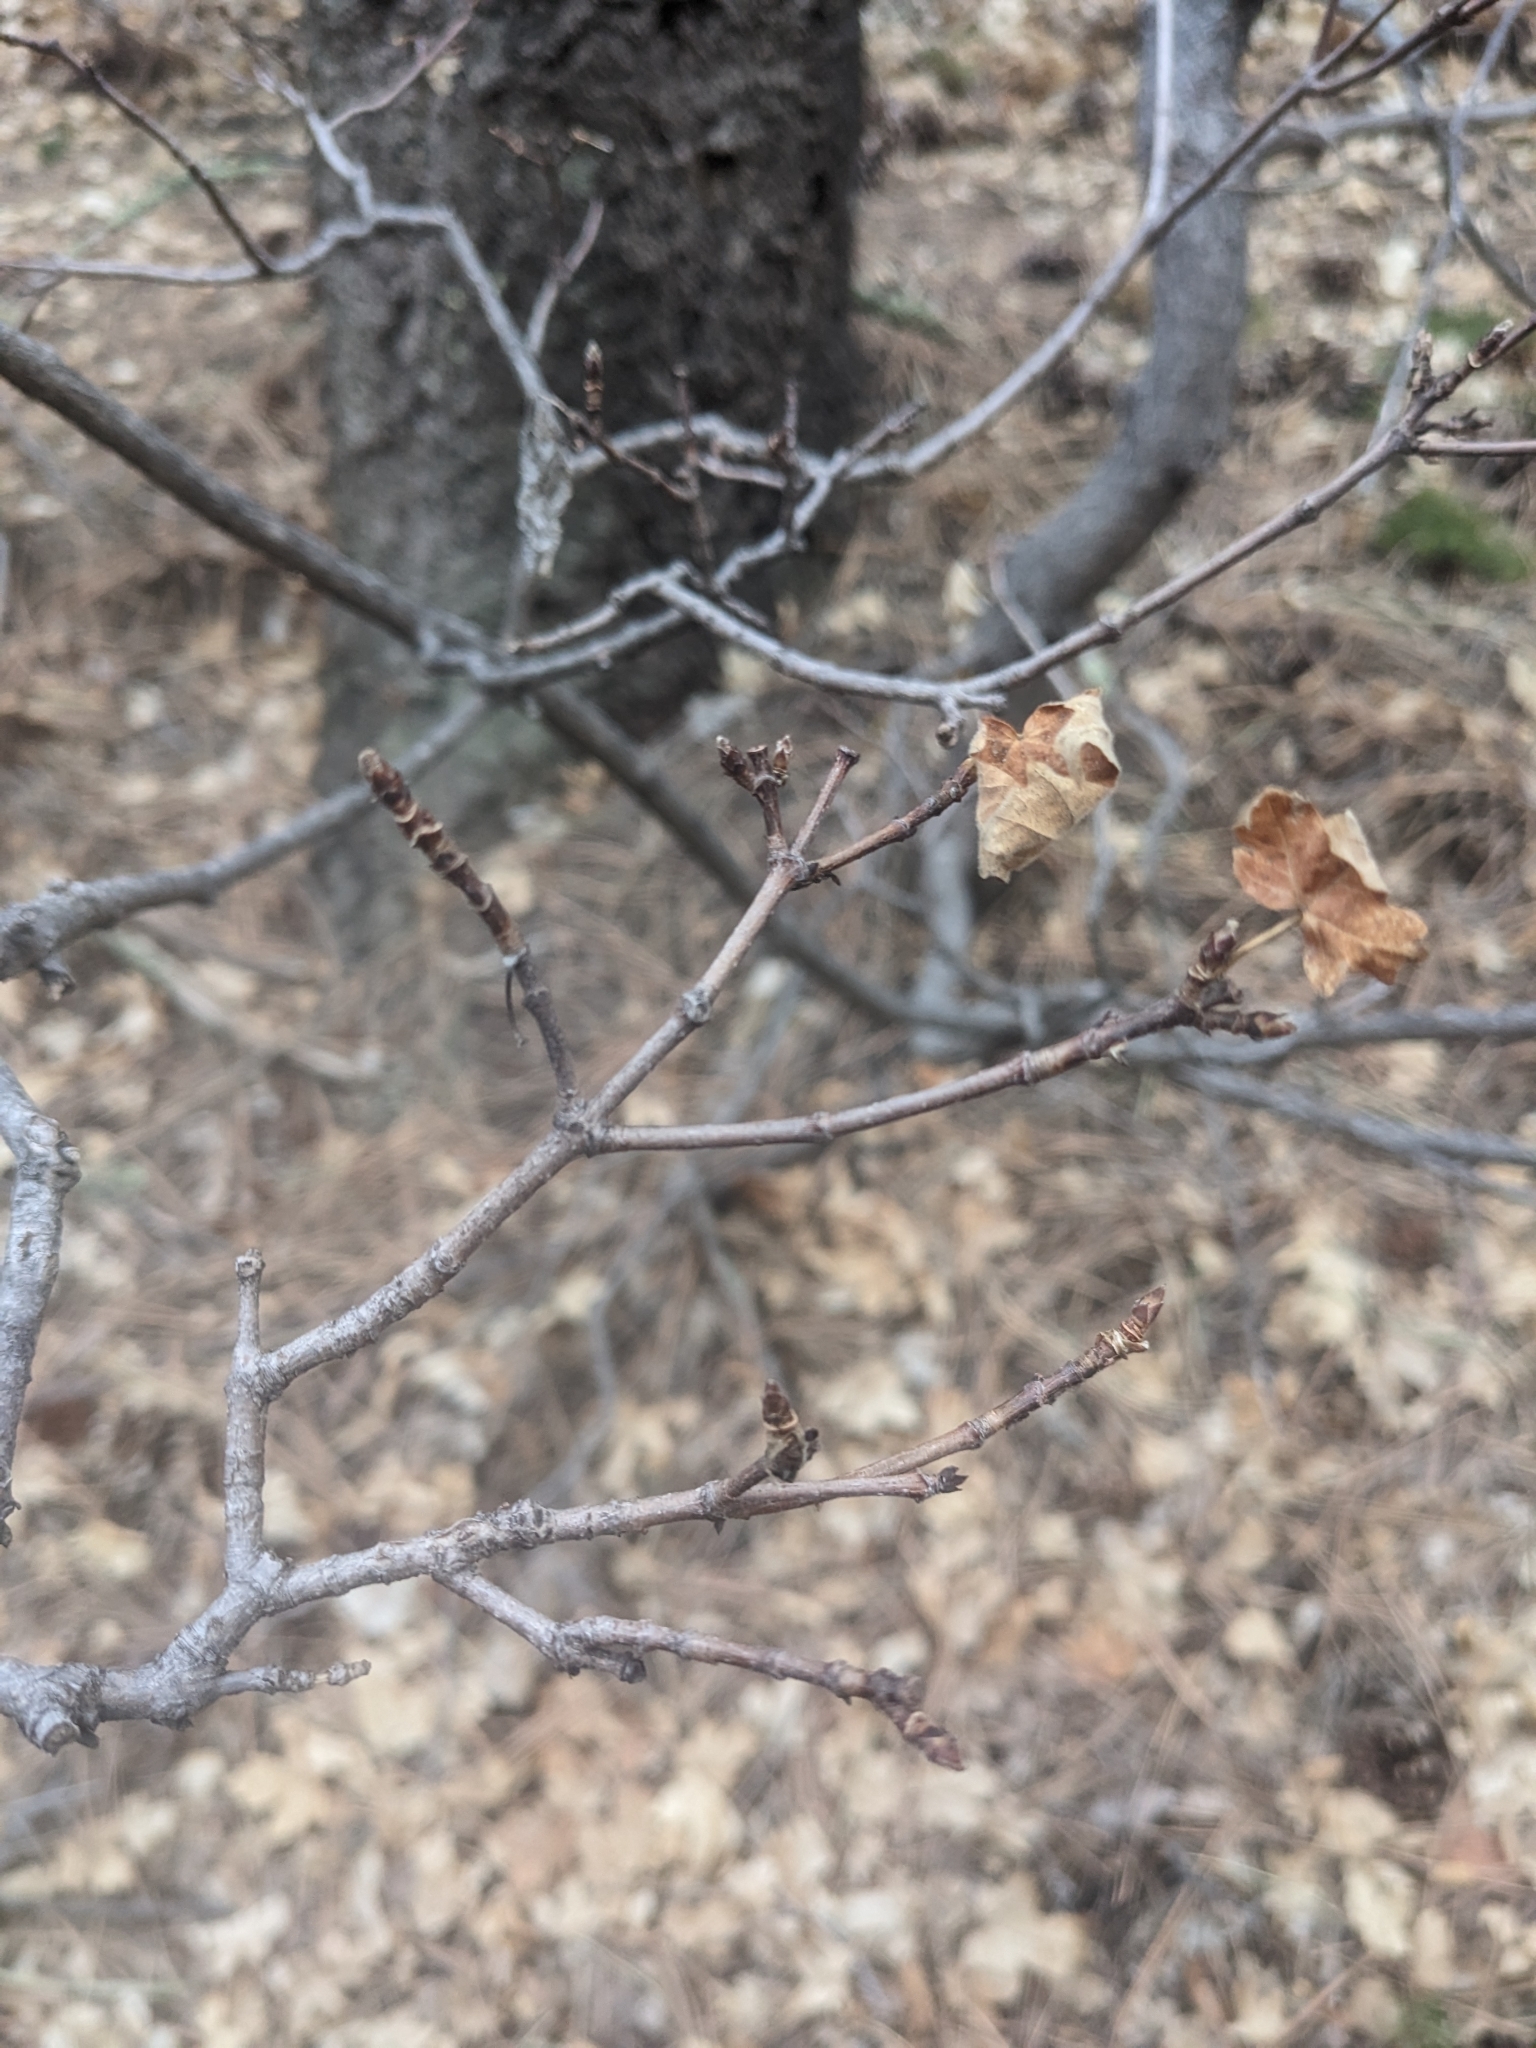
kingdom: Plantae
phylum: Tracheophyta
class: Magnoliopsida
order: Sapindales
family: Sapindaceae
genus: Acer
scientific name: Acer grandidentatum
